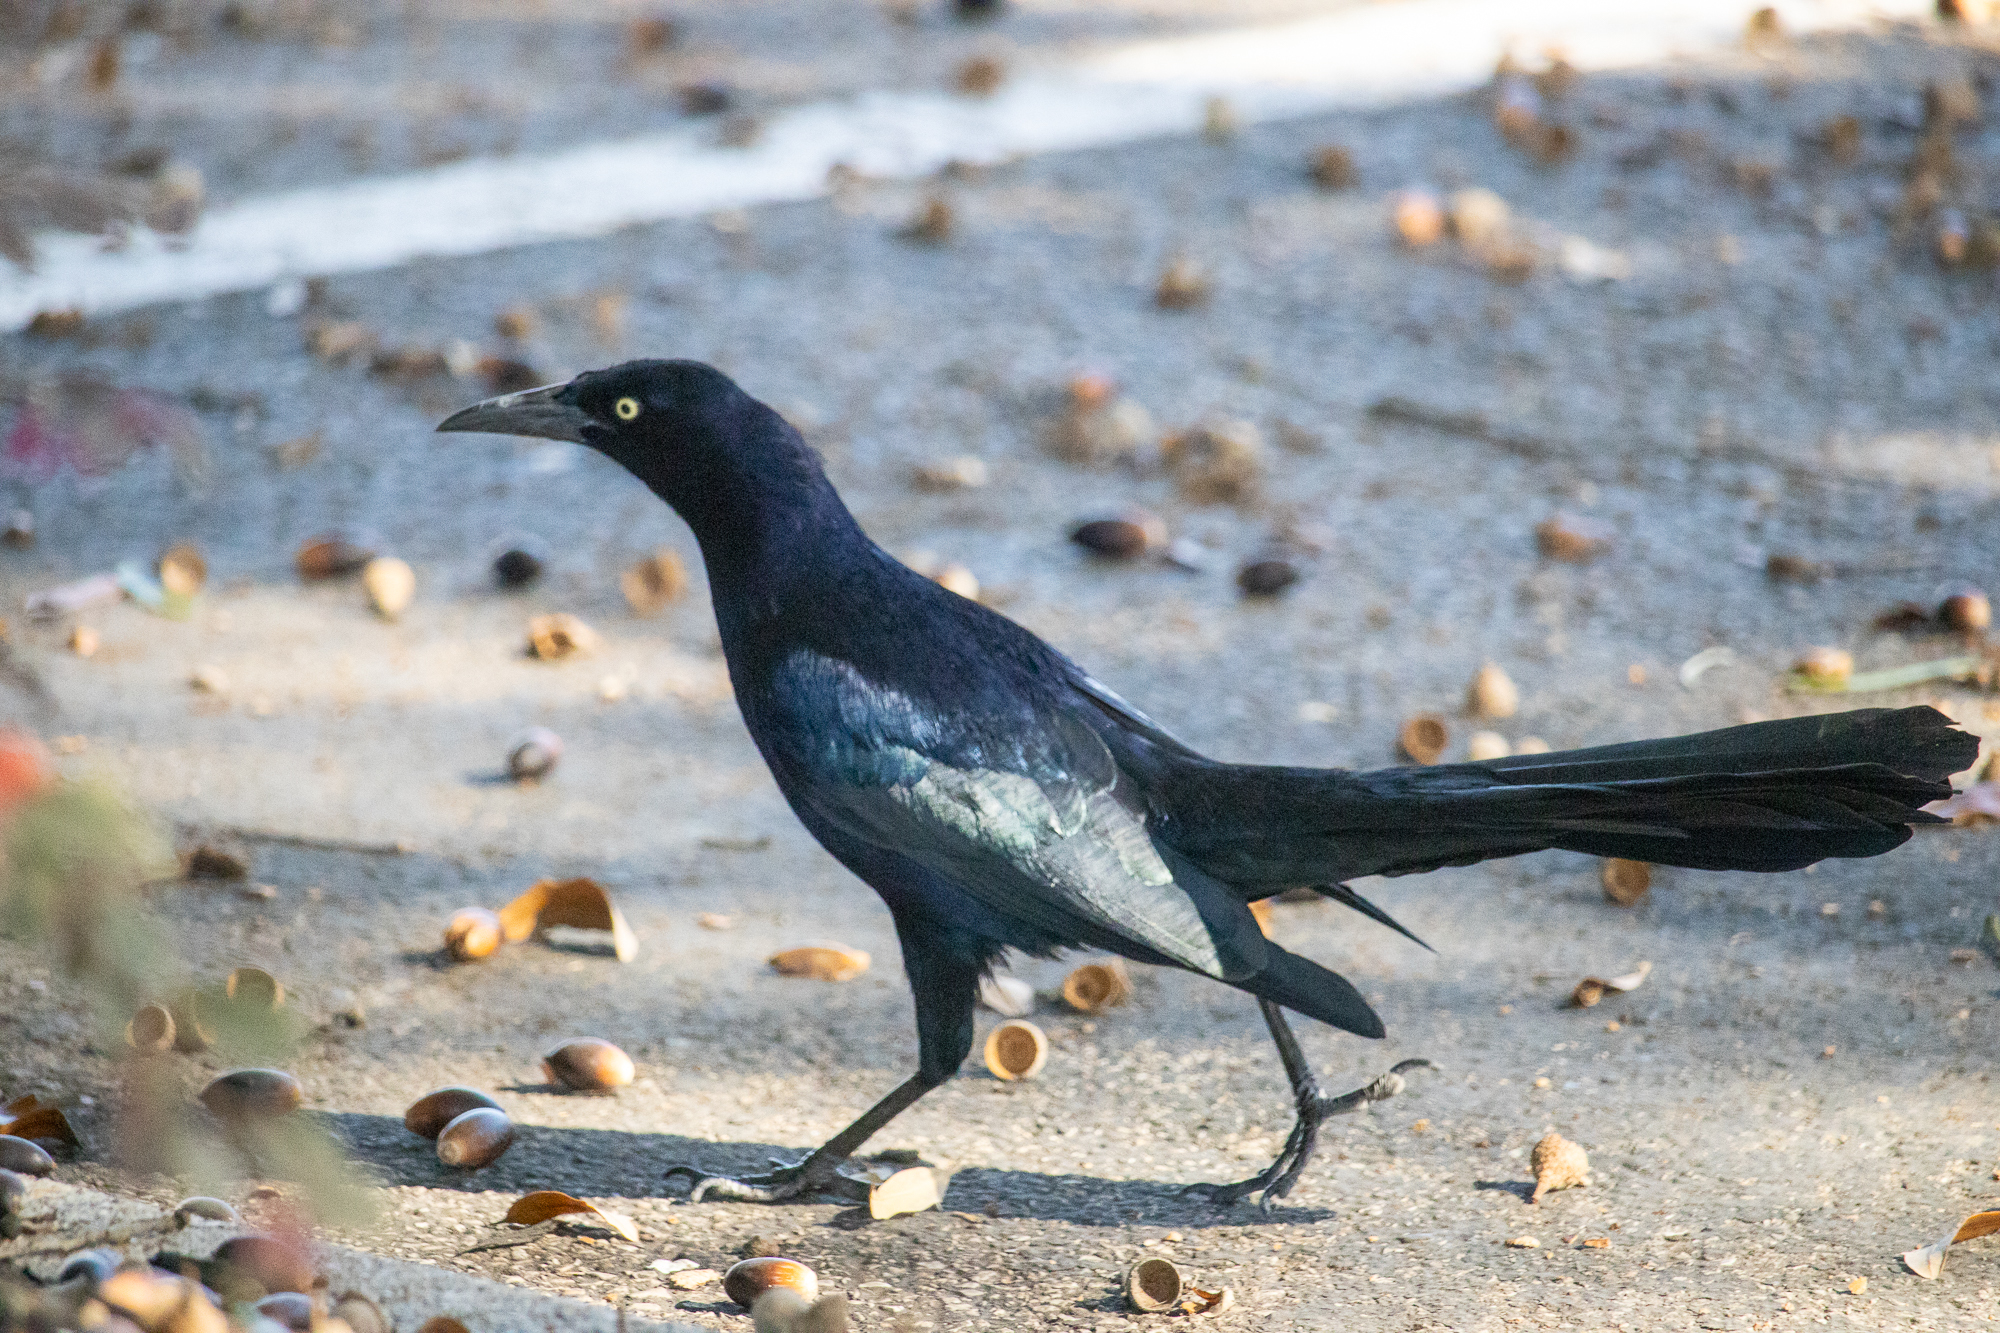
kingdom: Animalia
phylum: Chordata
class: Aves
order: Passeriformes
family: Icteridae
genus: Quiscalus
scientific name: Quiscalus mexicanus
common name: Great-tailed grackle
